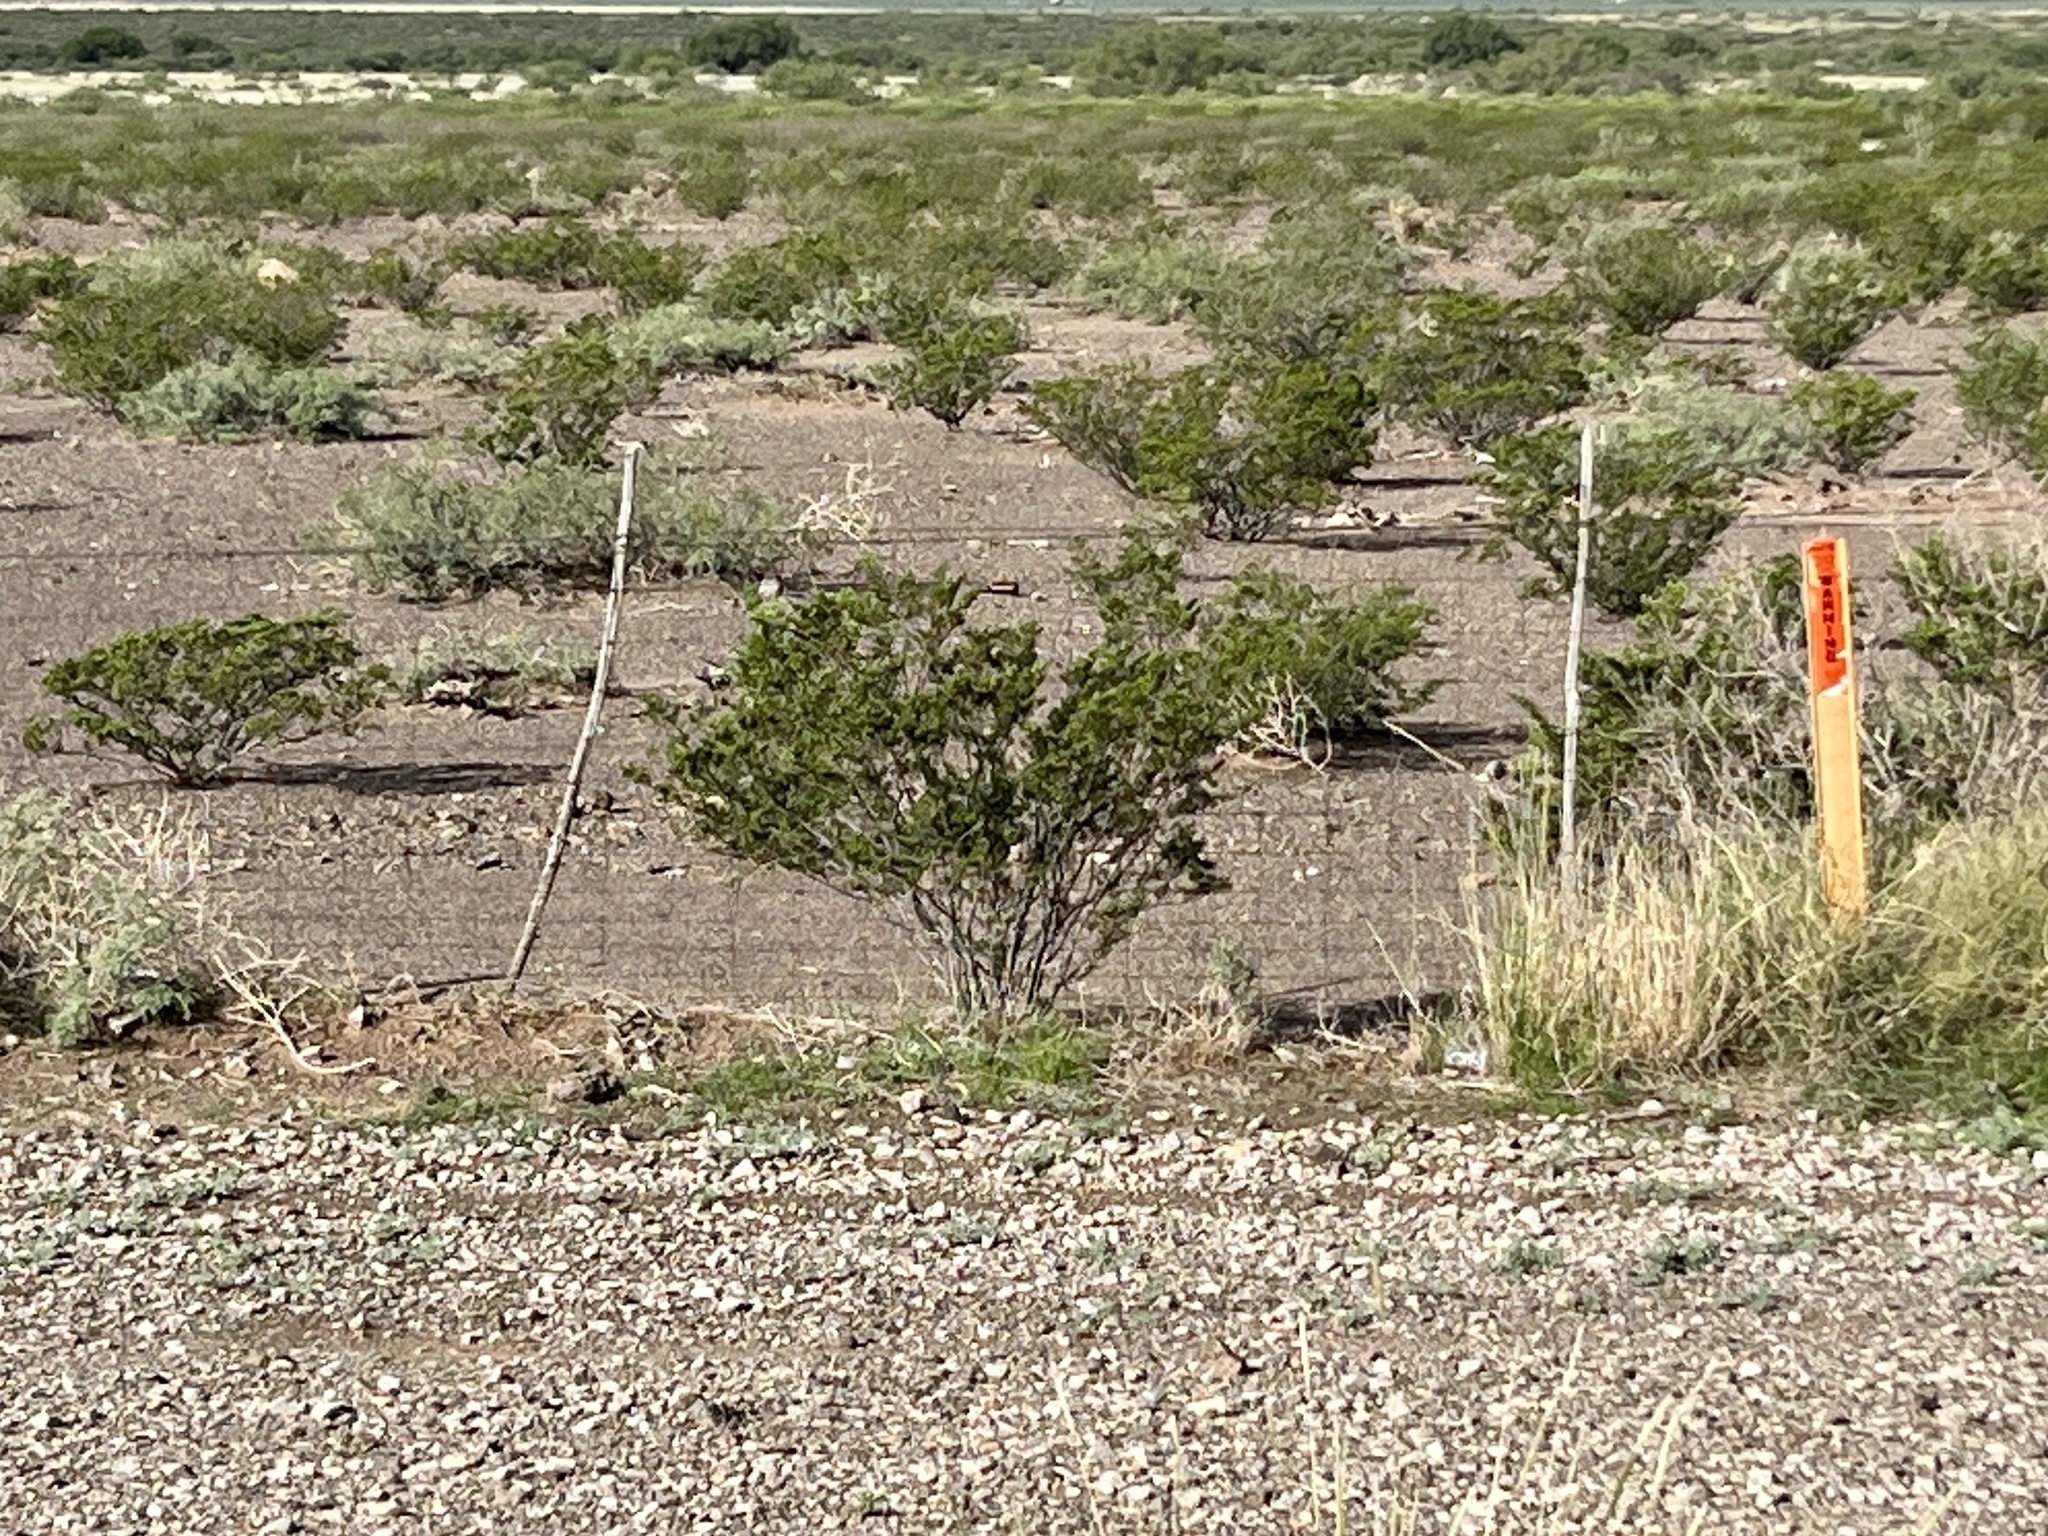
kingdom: Plantae
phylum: Tracheophyta
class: Magnoliopsida
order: Zygophyllales
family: Zygophyllaceae
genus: Larrea
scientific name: Larrea tridentata
